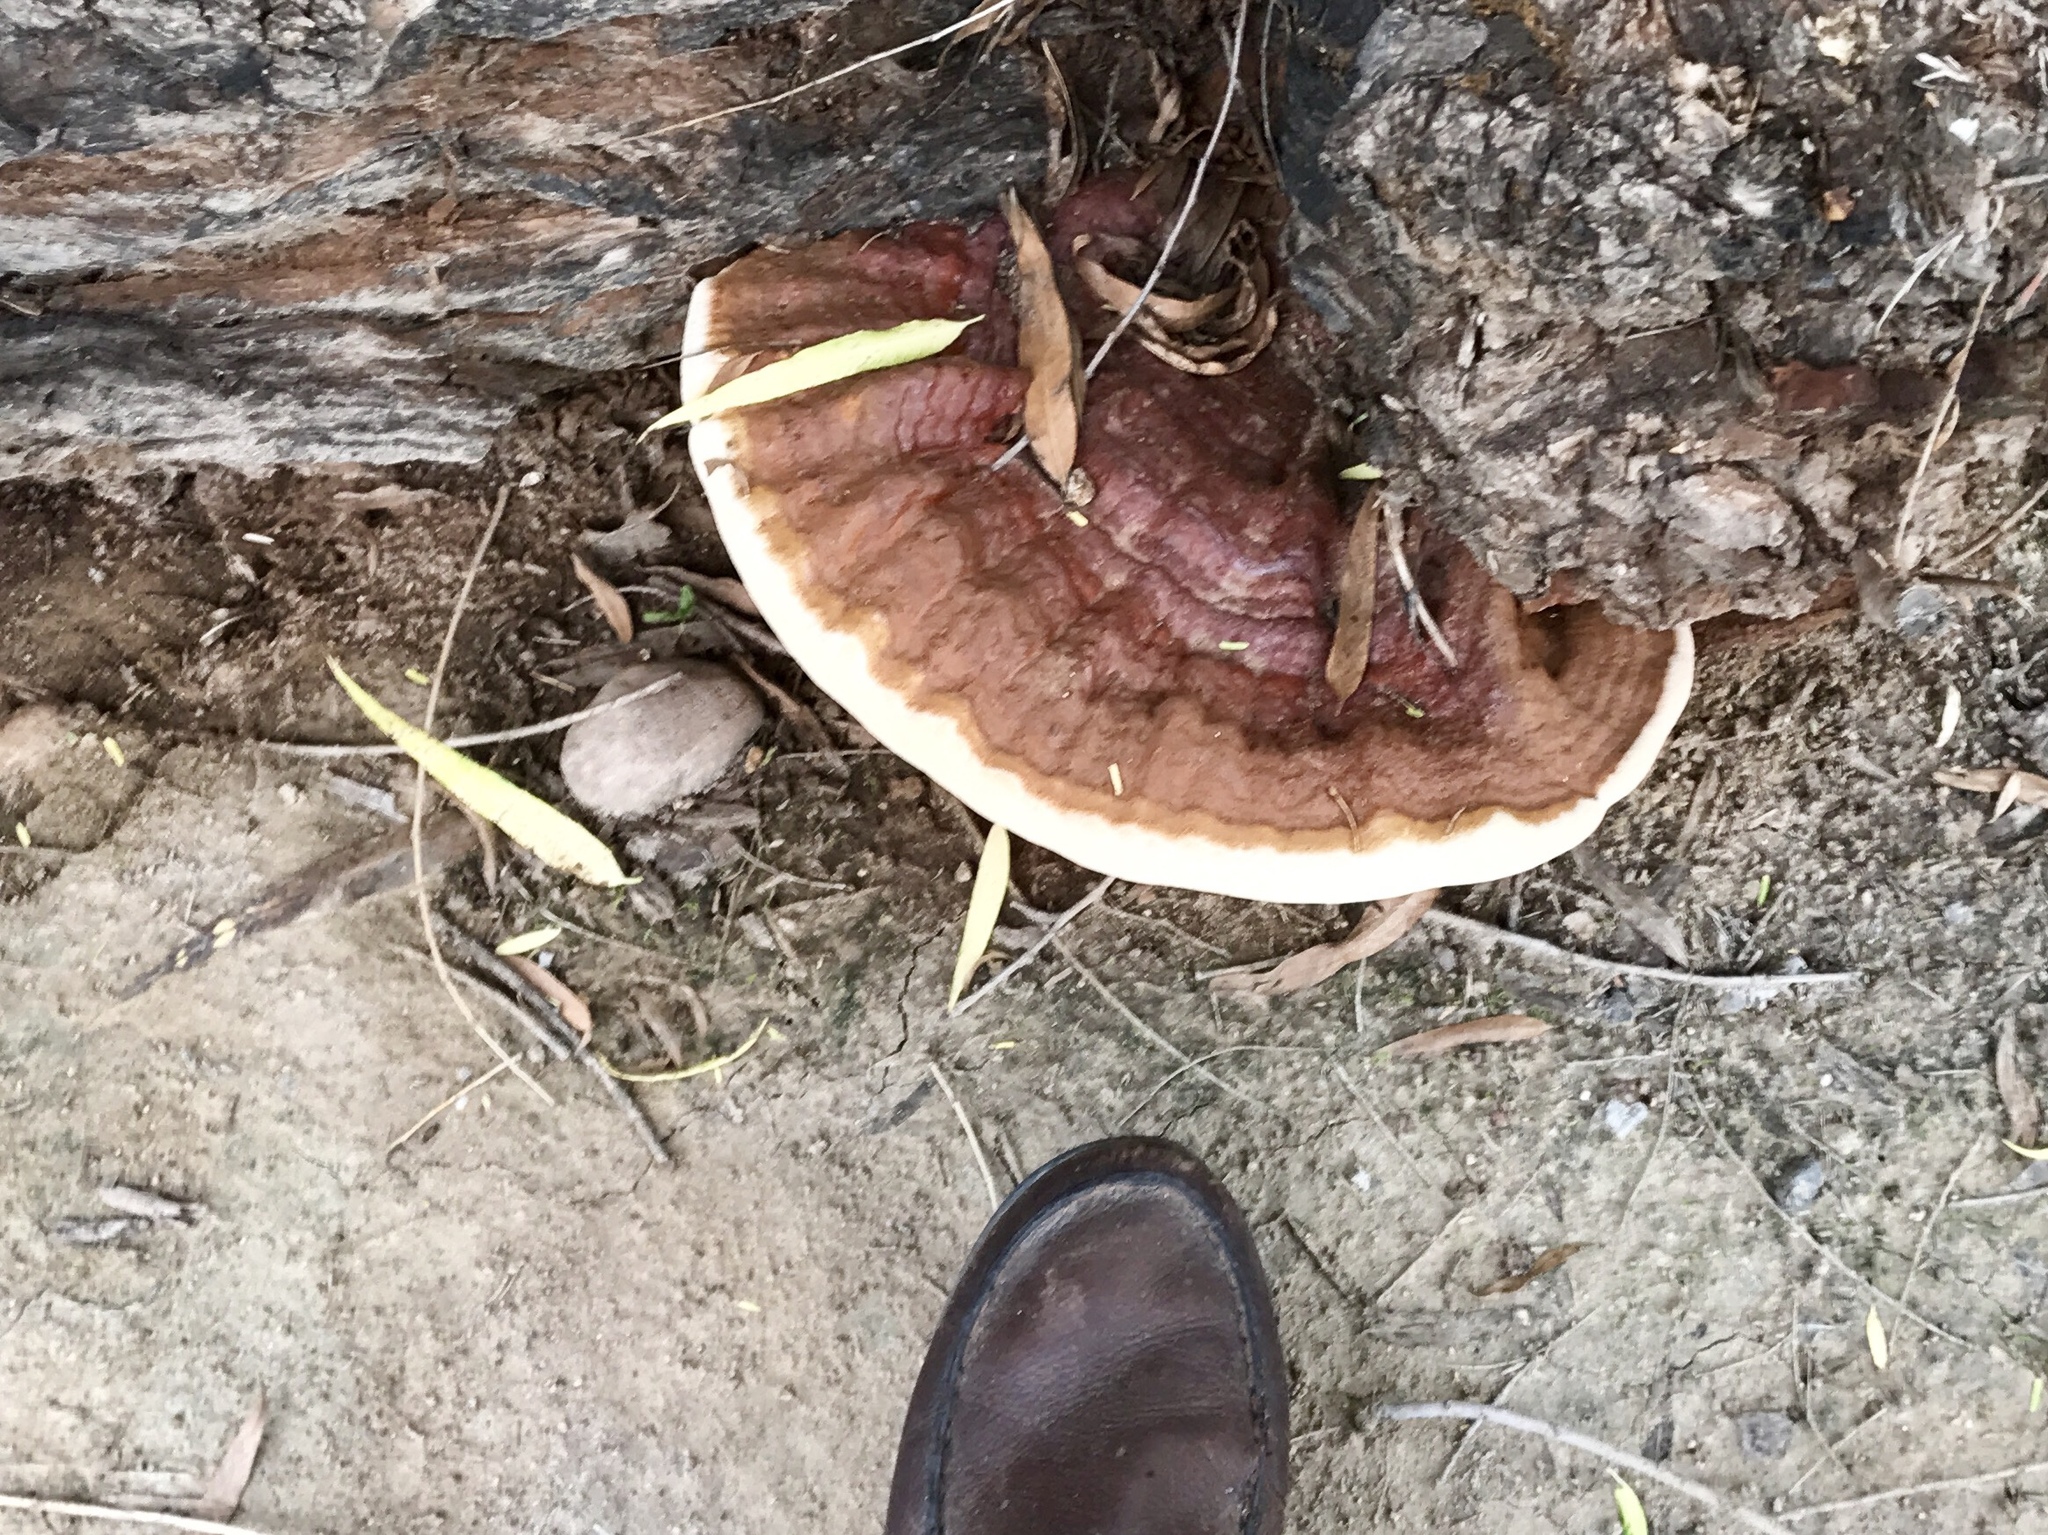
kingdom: Fungi
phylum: Basidiomycota
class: Agaricomycetes
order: Polyporales
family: Polyporaceae
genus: Ganoderma
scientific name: Ganoderma polychromum
